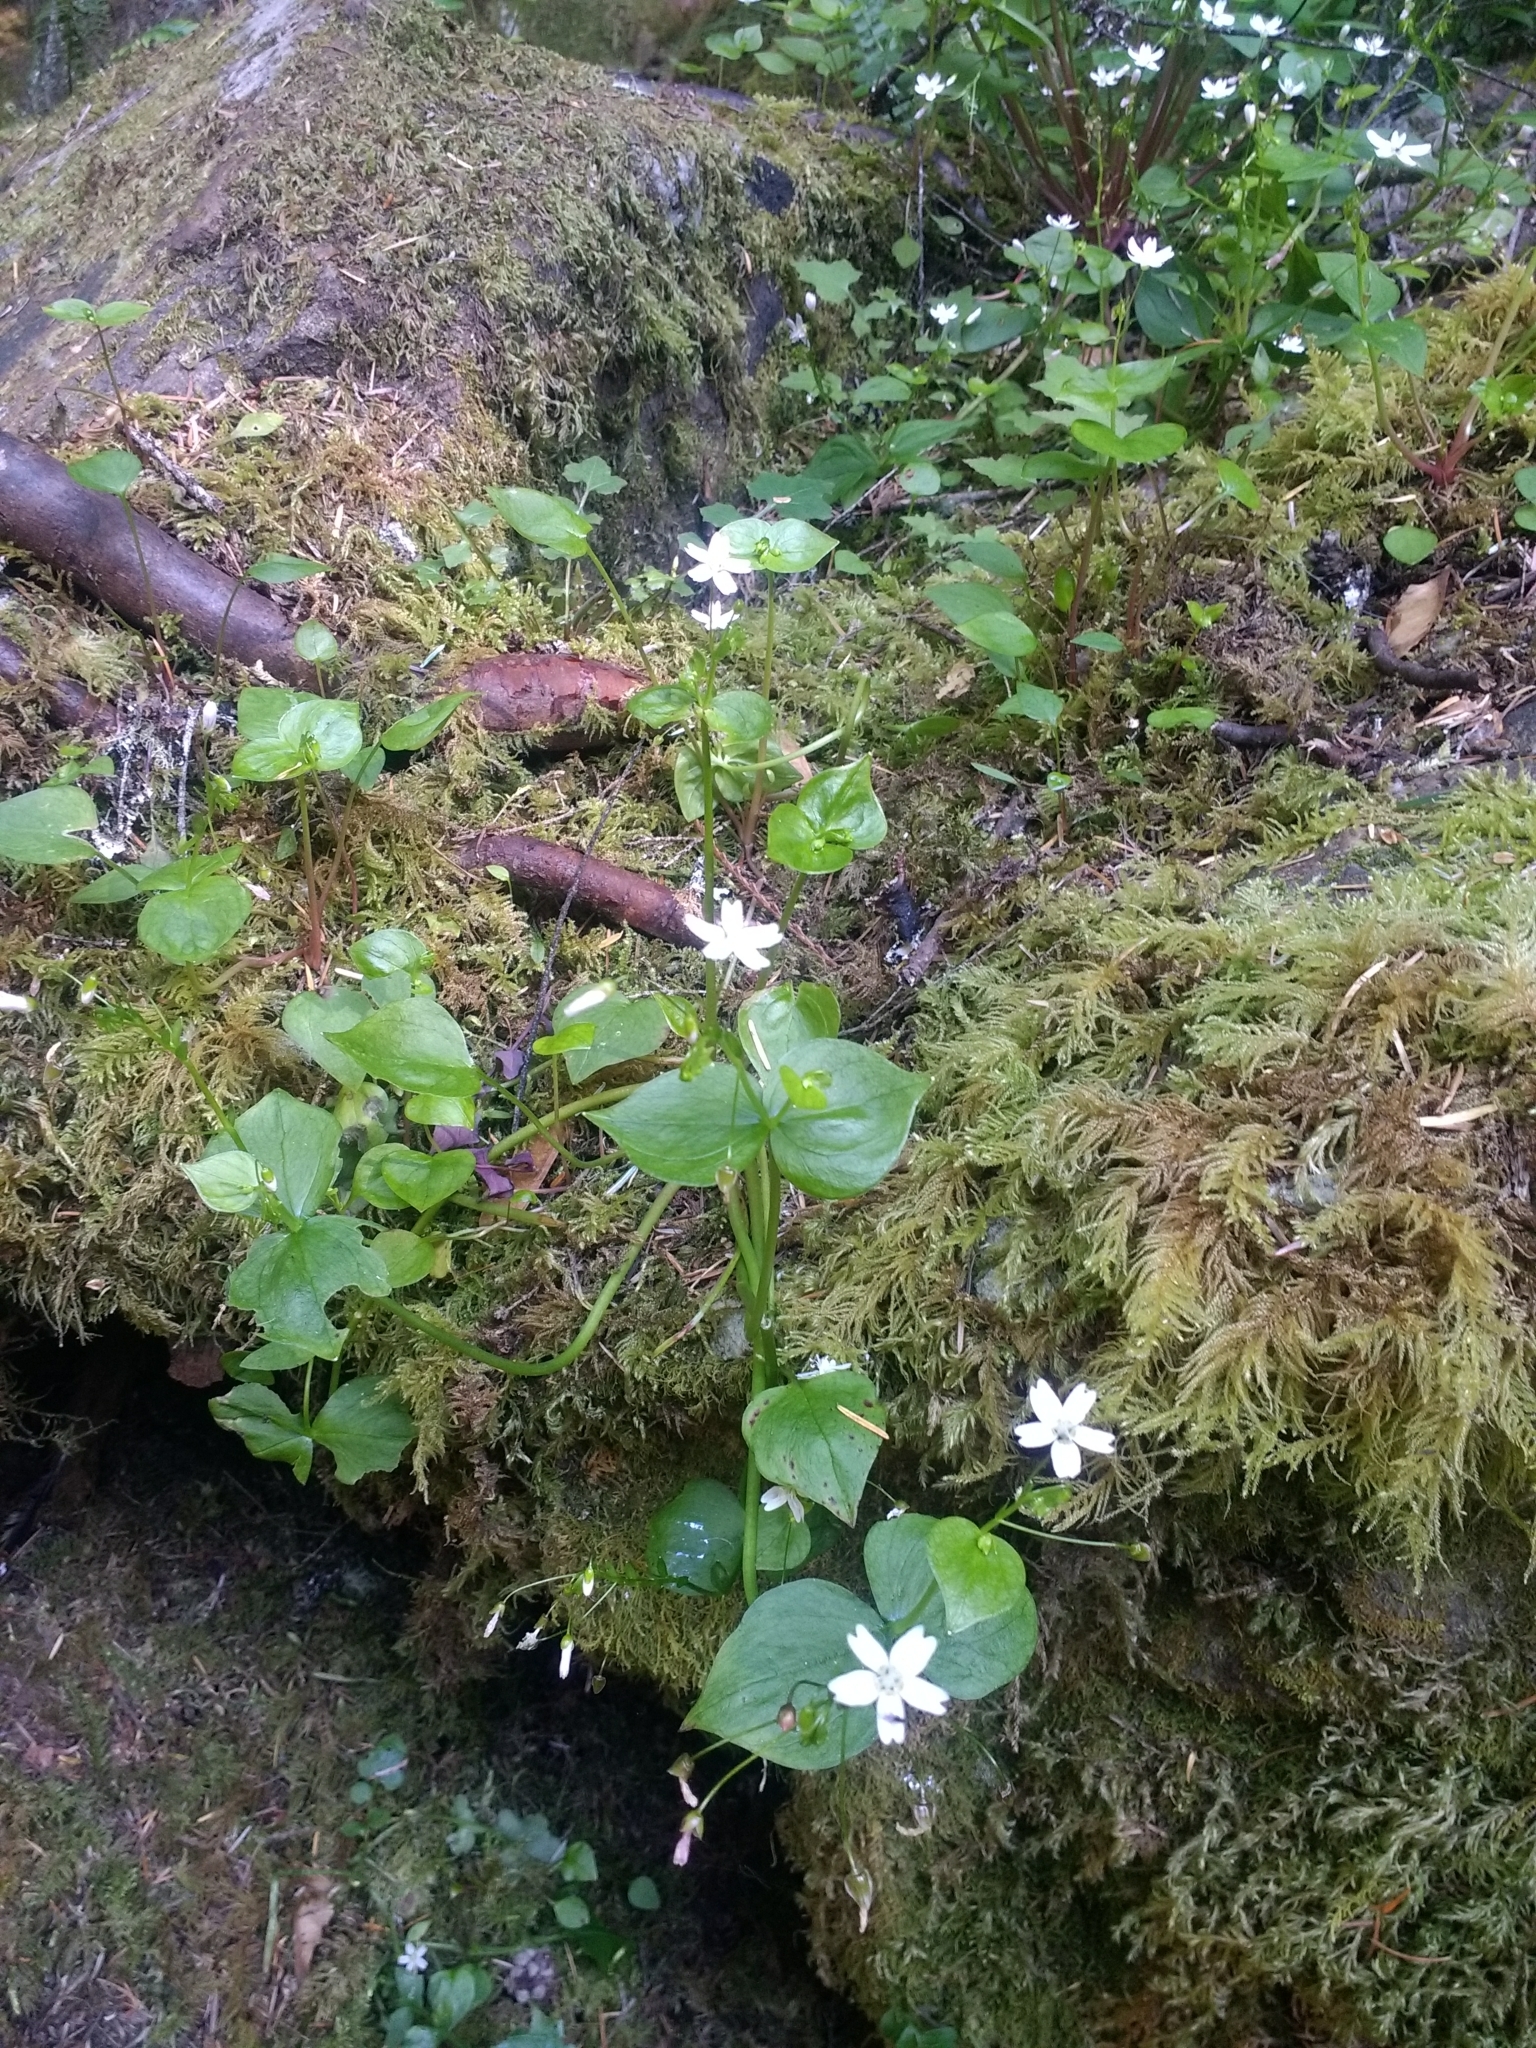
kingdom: Plantae
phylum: Tracheophyta
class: Magnoliopsida
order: Caryophyllales
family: Montiaceae
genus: Claytonia
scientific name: Claytonia sibirica
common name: Pink purslane
